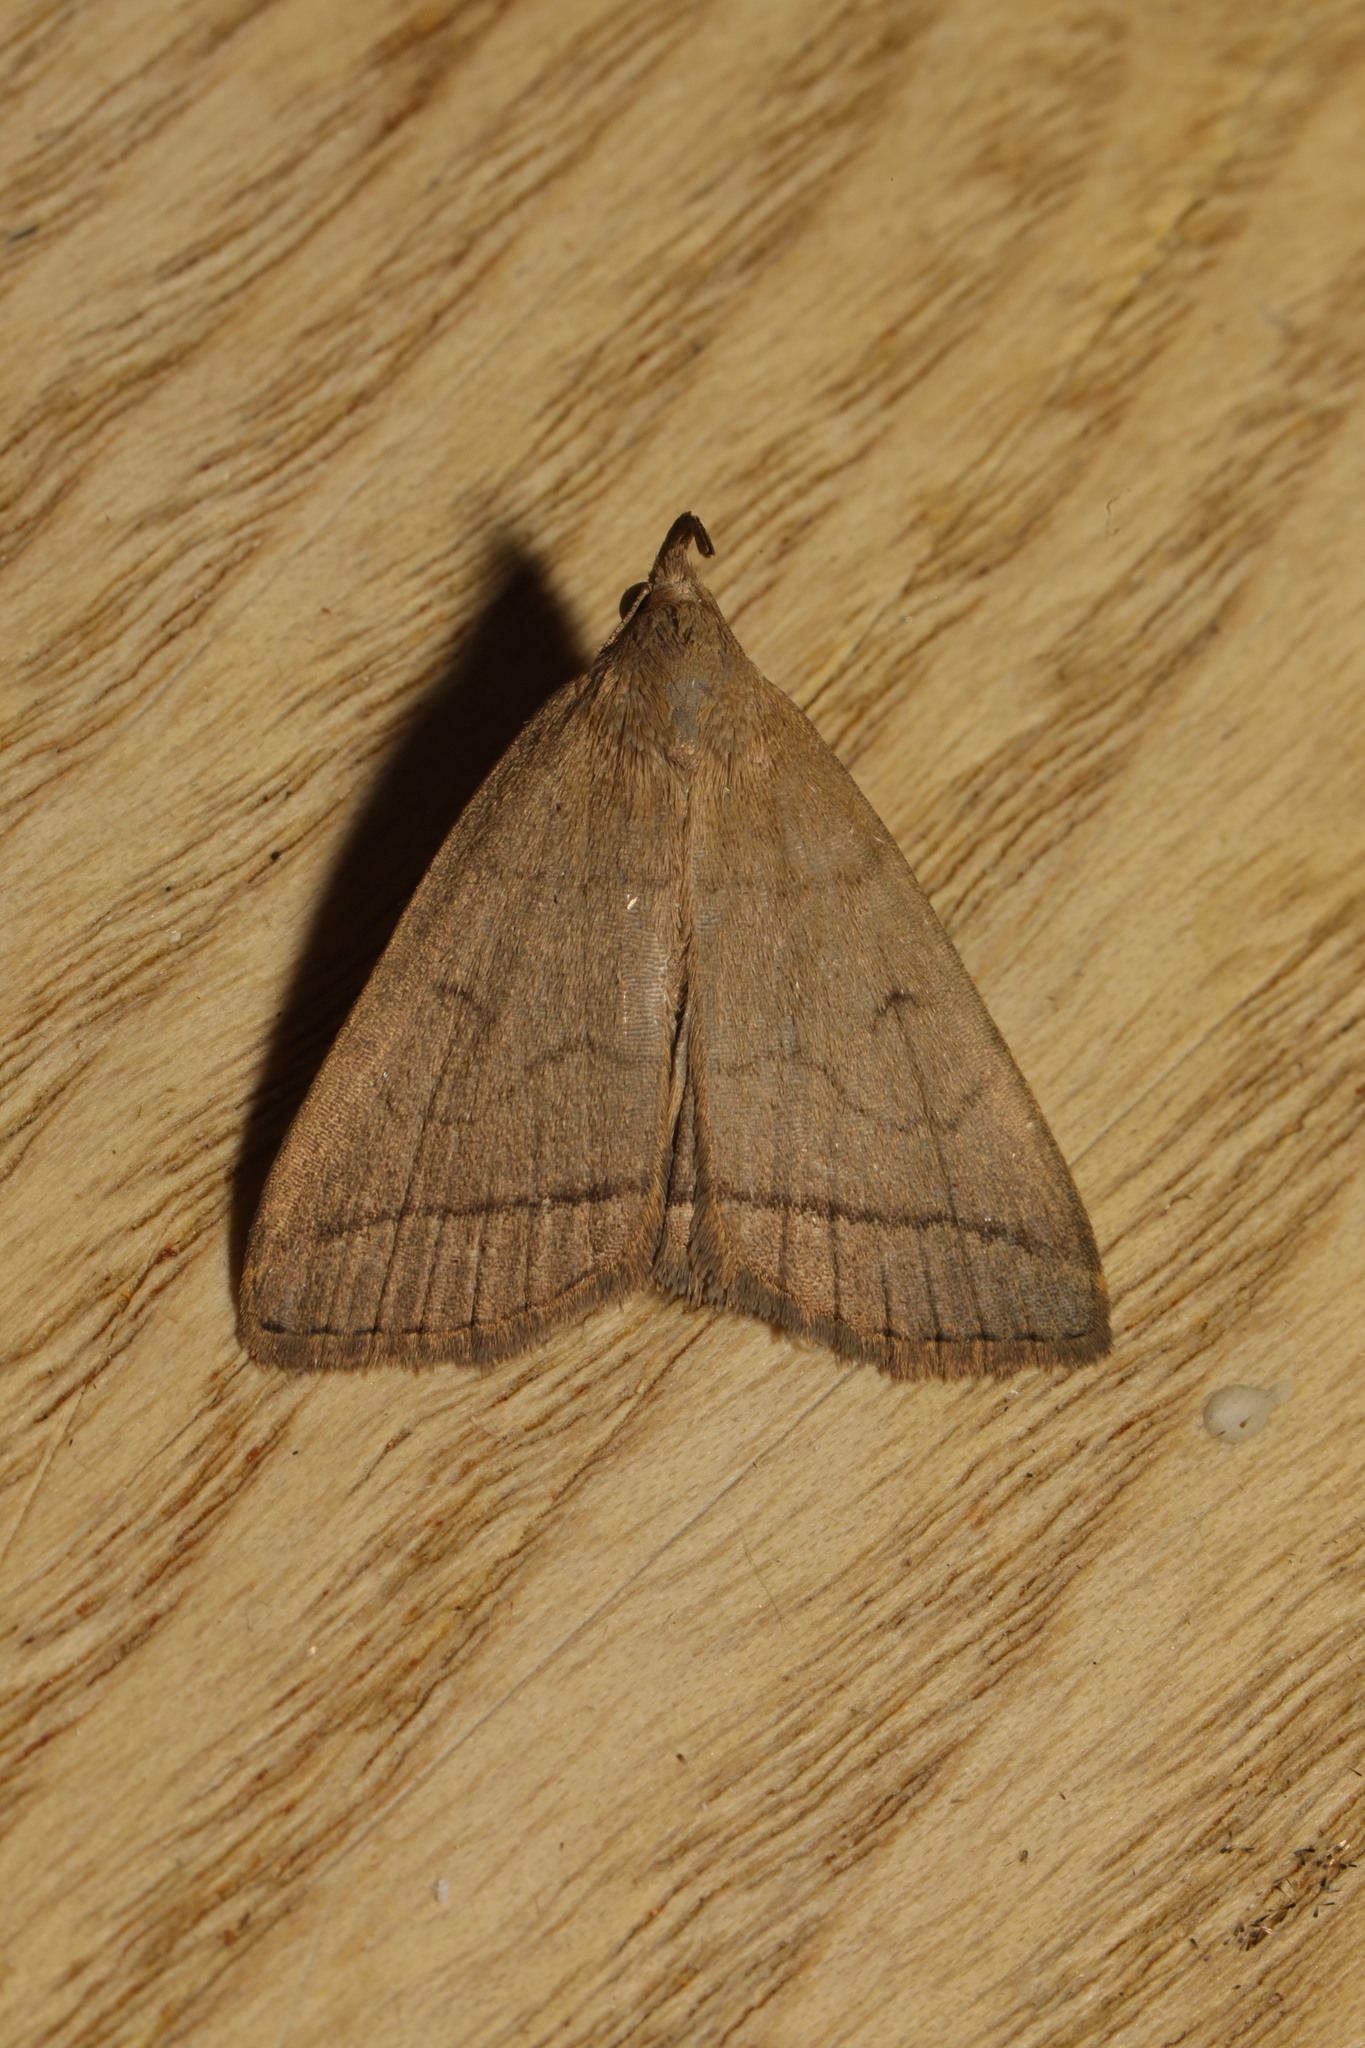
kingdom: Animalia
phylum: Arthropoda
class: Insecta
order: Lepidoptera
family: Erebidae
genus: Herminia
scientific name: Herminia tarsipennalis
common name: Fan-foot
